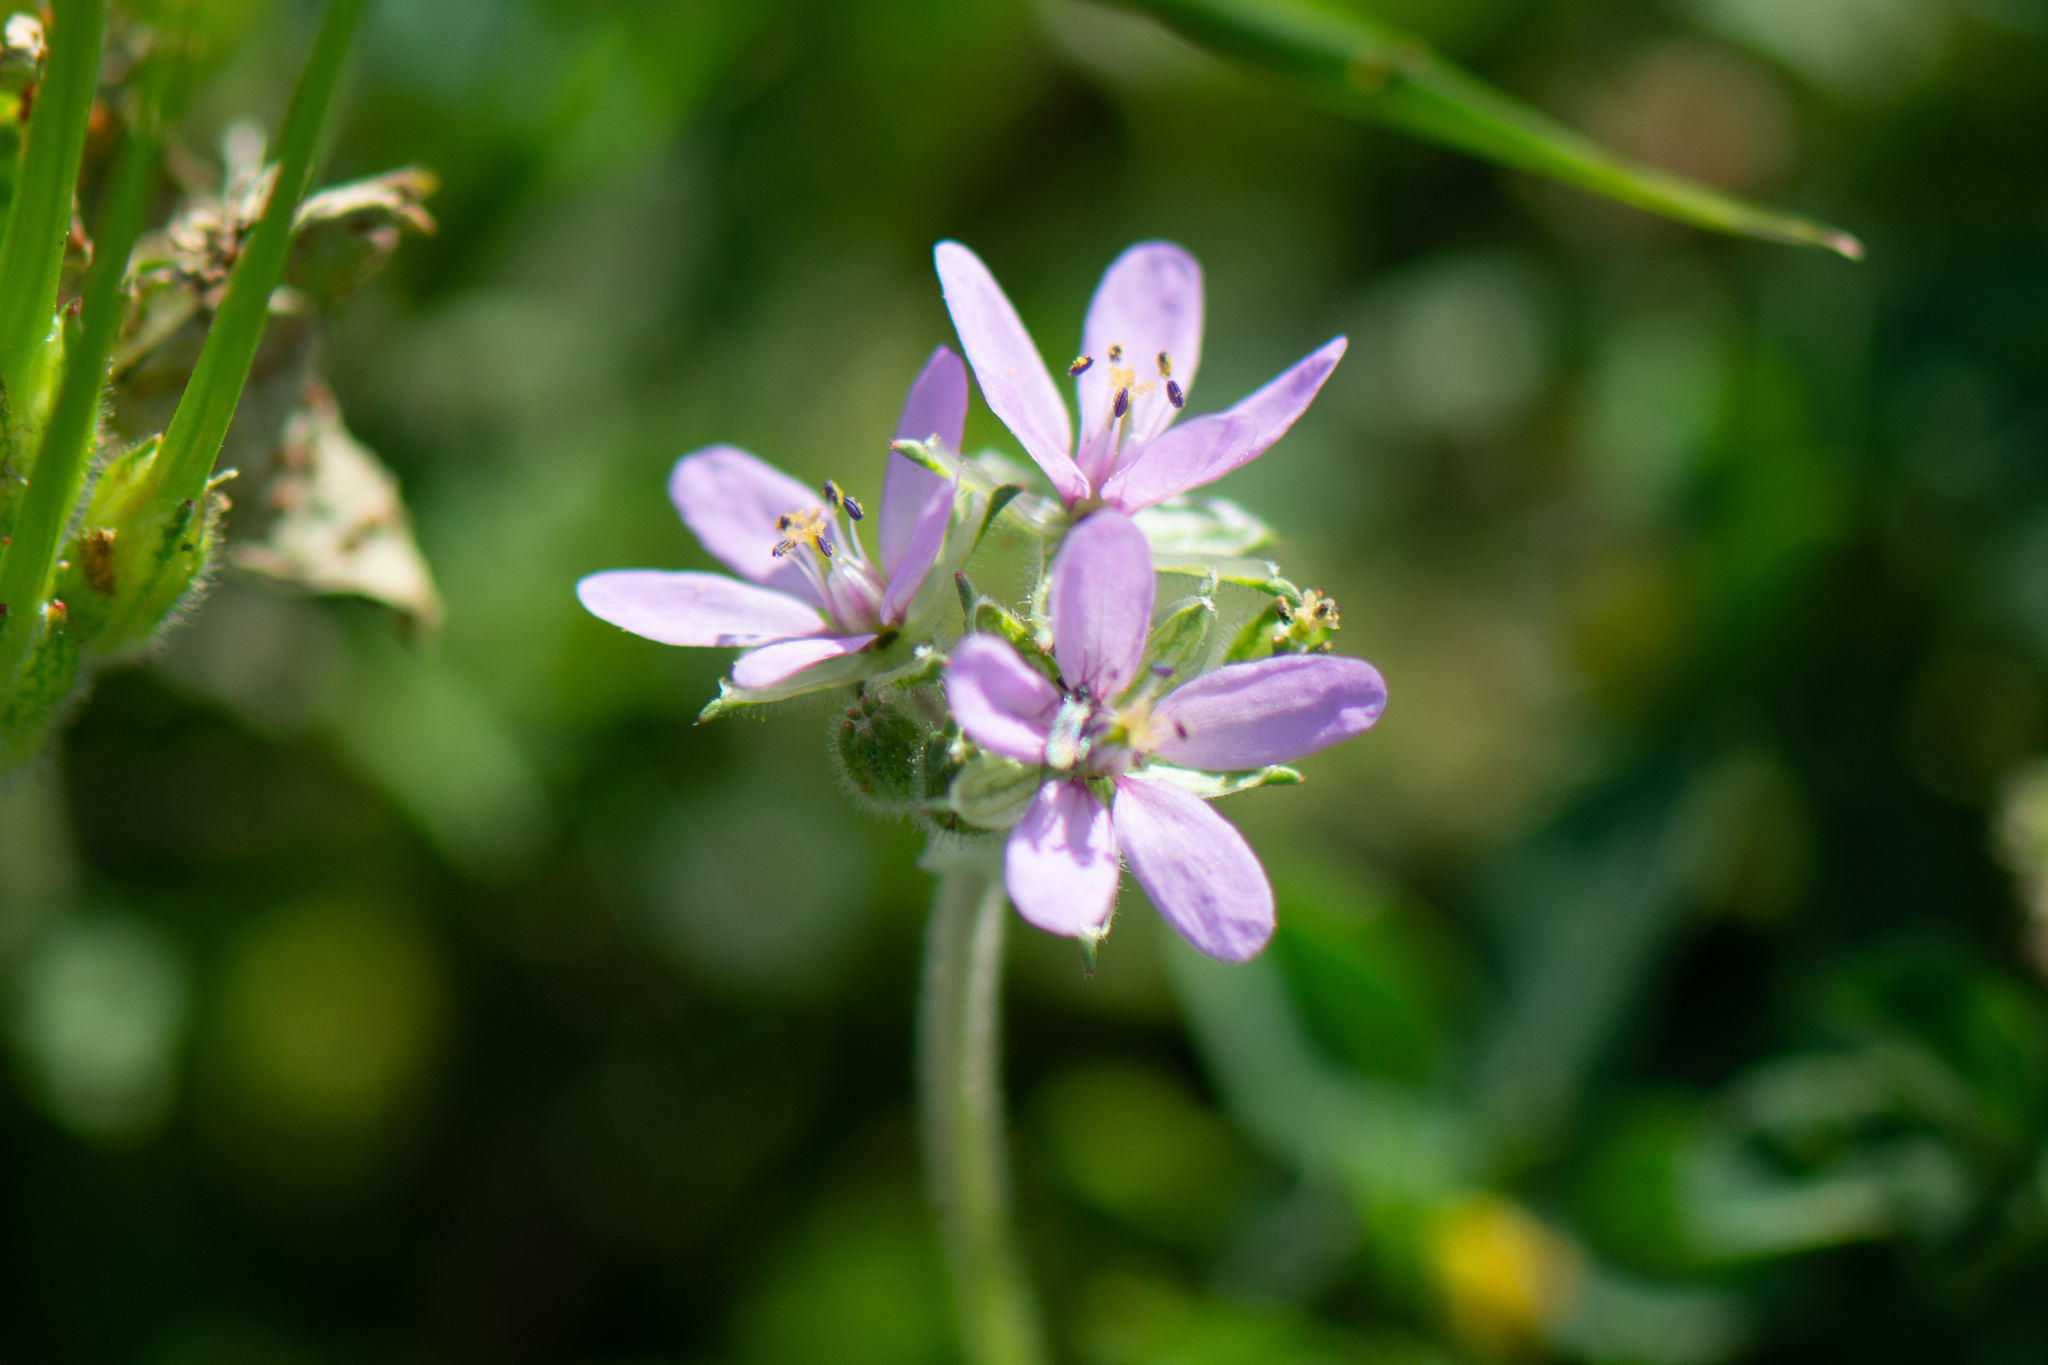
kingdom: Plantae
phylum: Tracheophyta
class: Magnoliopsida
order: Geraniales
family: Geraniaceae
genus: Erodium
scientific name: Erodium moschatum
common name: Musk stork's-bill
